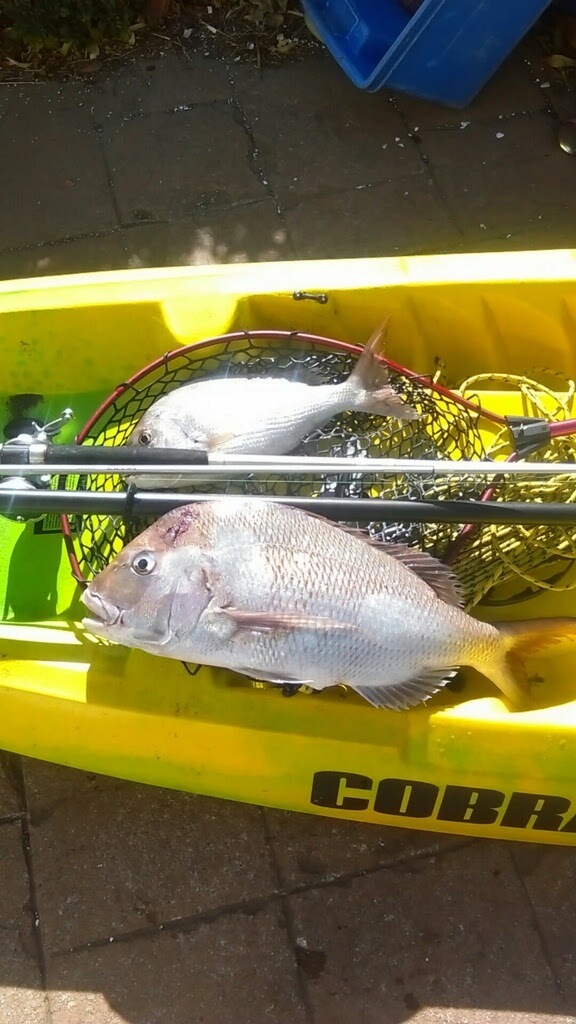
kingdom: Animalia
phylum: Chordata
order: Perciformes
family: Sparidae
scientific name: Sparidae
